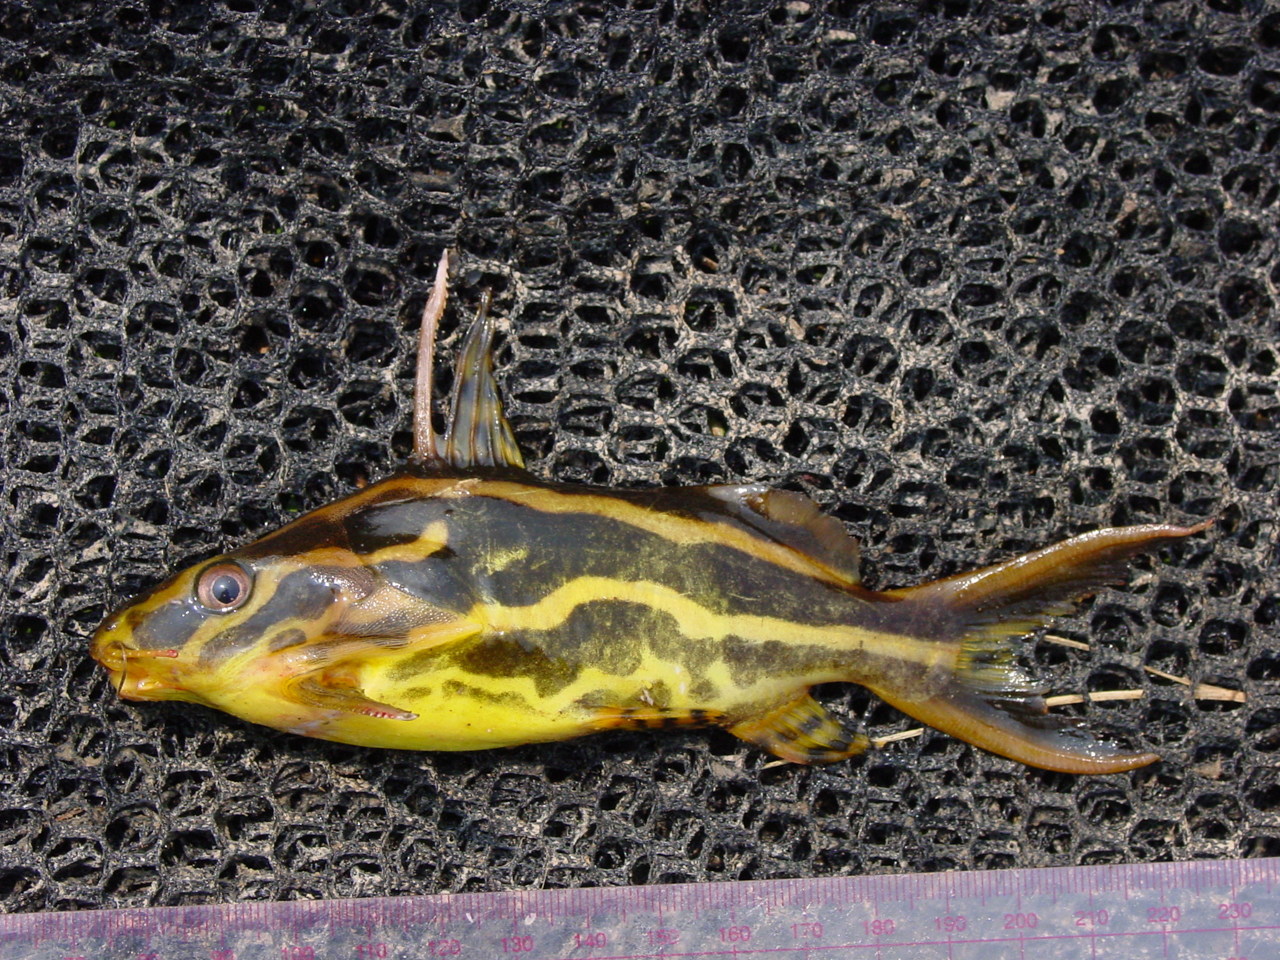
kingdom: Animalia
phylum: Chordata
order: Siluriformes
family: Mochokidae
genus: Synodontis
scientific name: Synodontis flavitaeniatus
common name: Chocolatestriped squeaker
